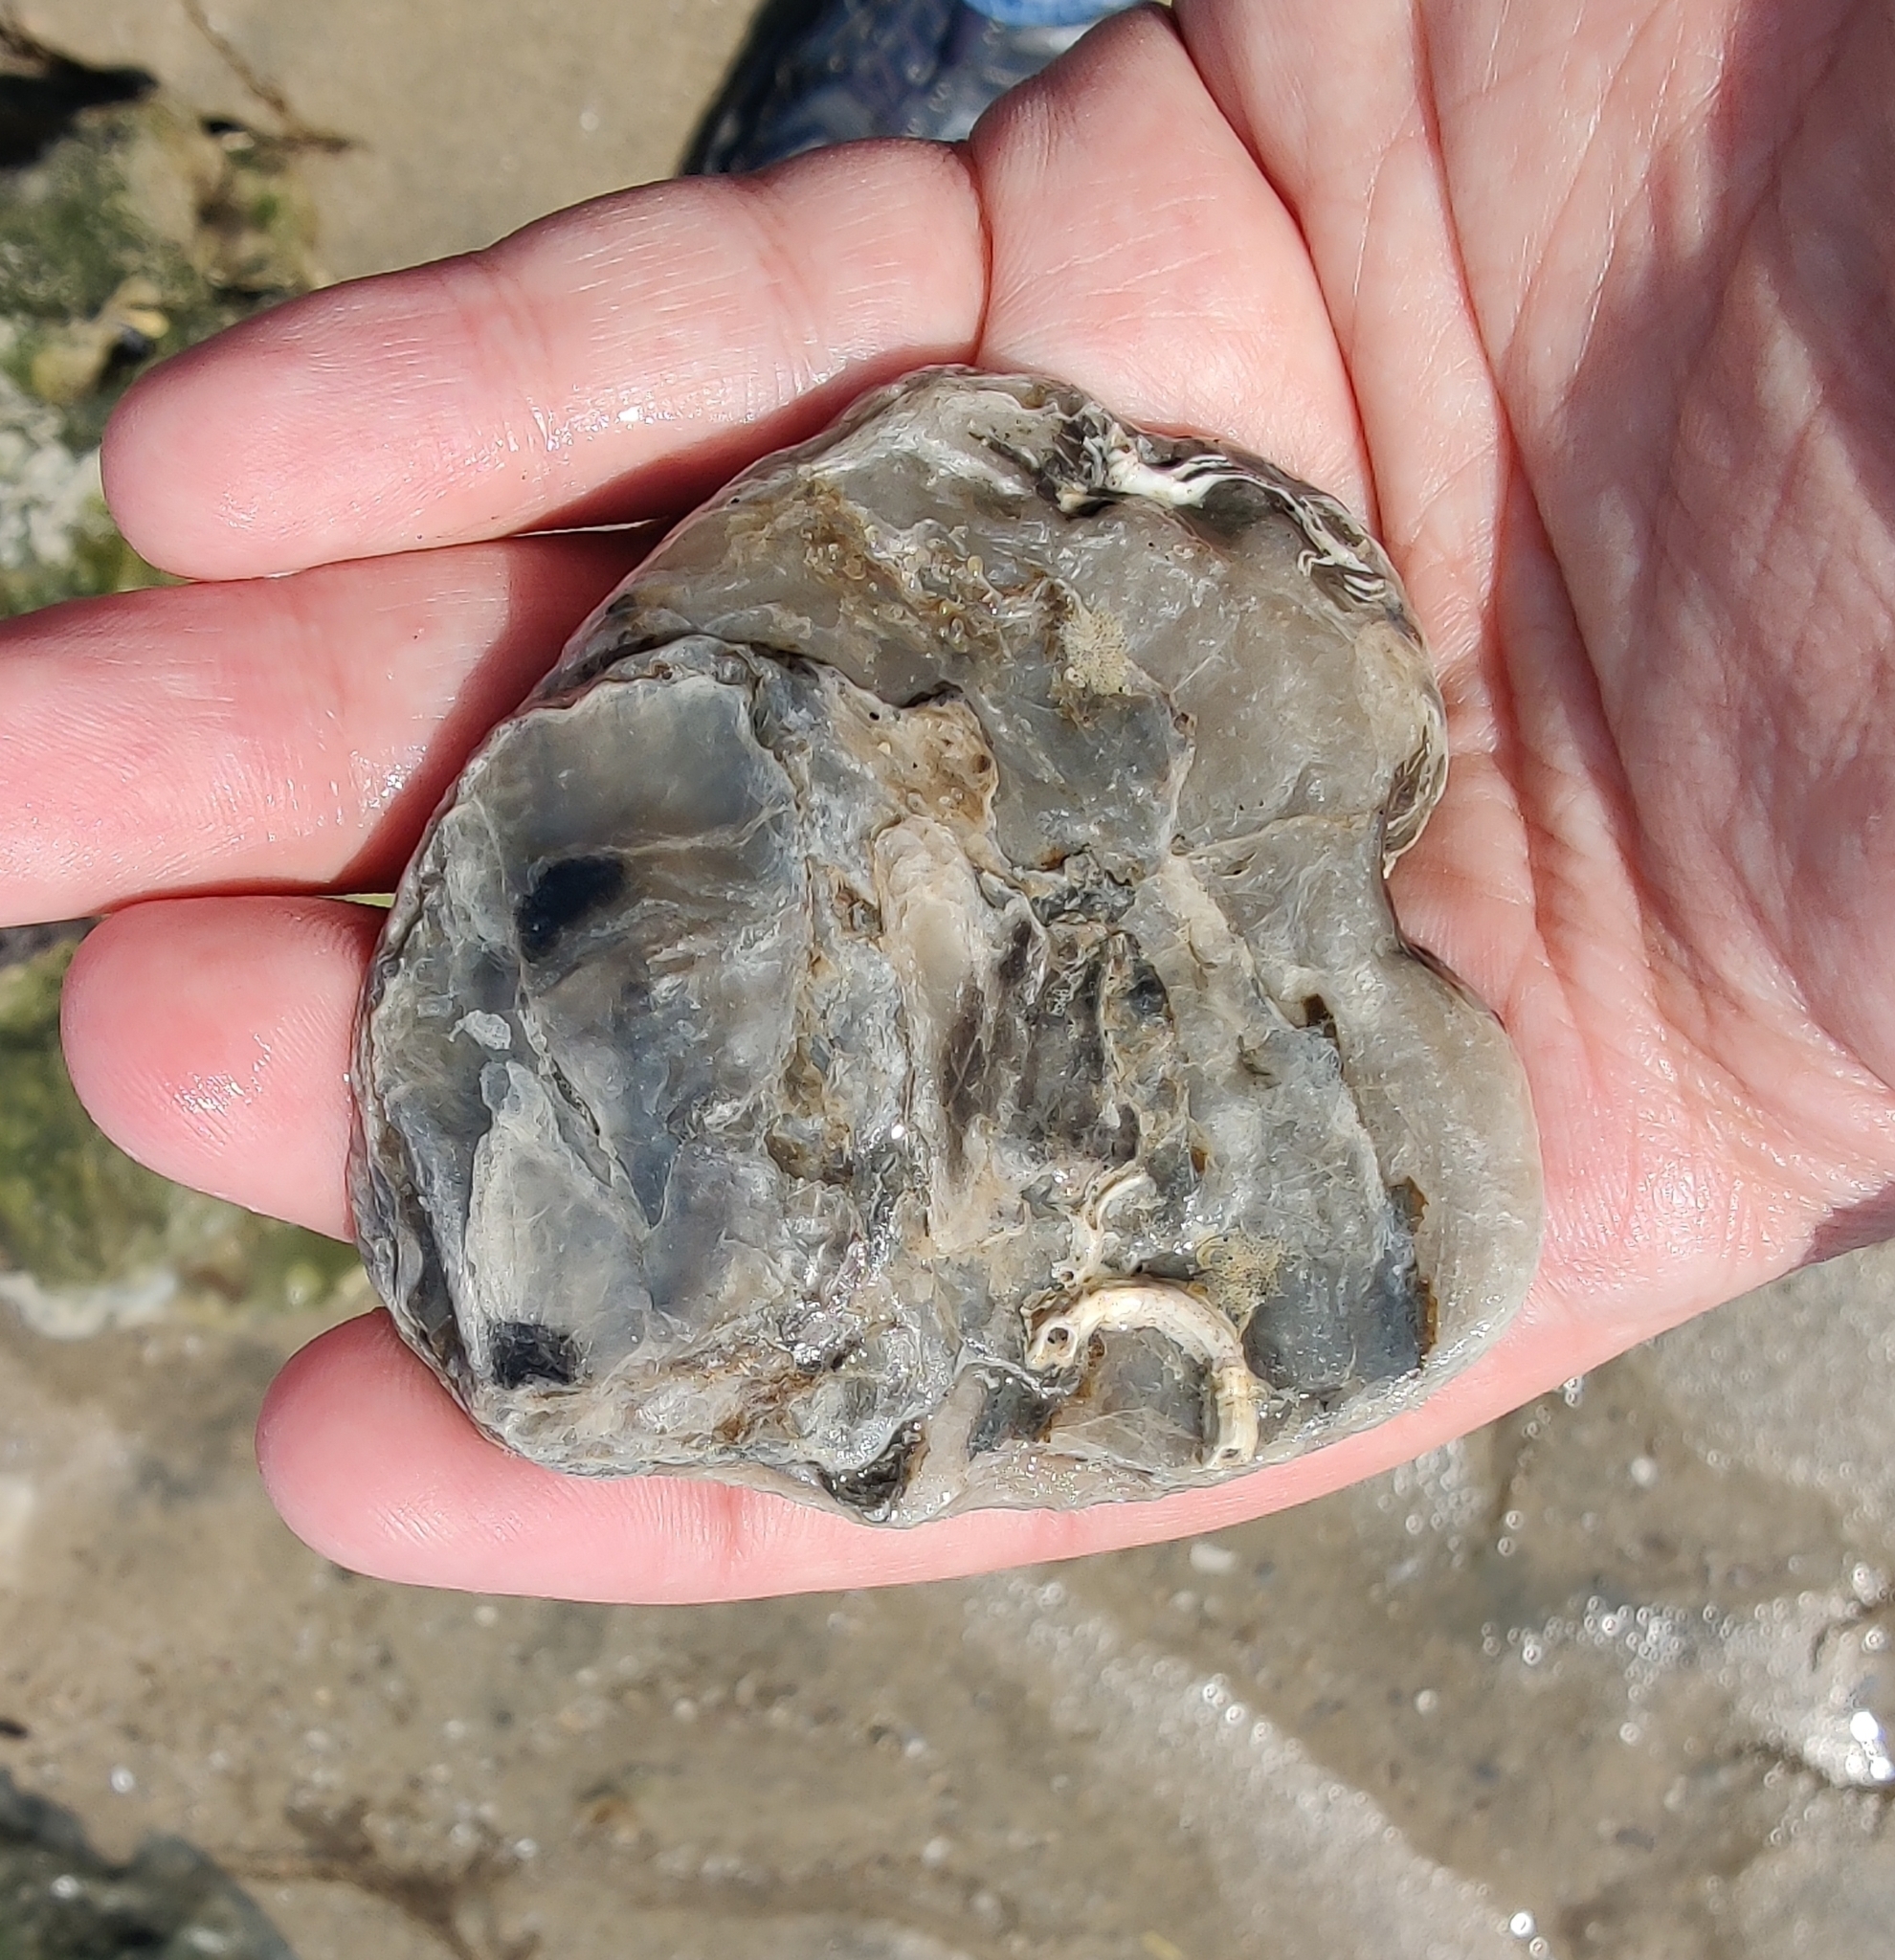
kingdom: Animalia
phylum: Mollusca
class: Bivalvia
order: Ostreida
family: Ostreidae
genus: Ostrea
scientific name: Ostrea edulis
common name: Flat oyster
